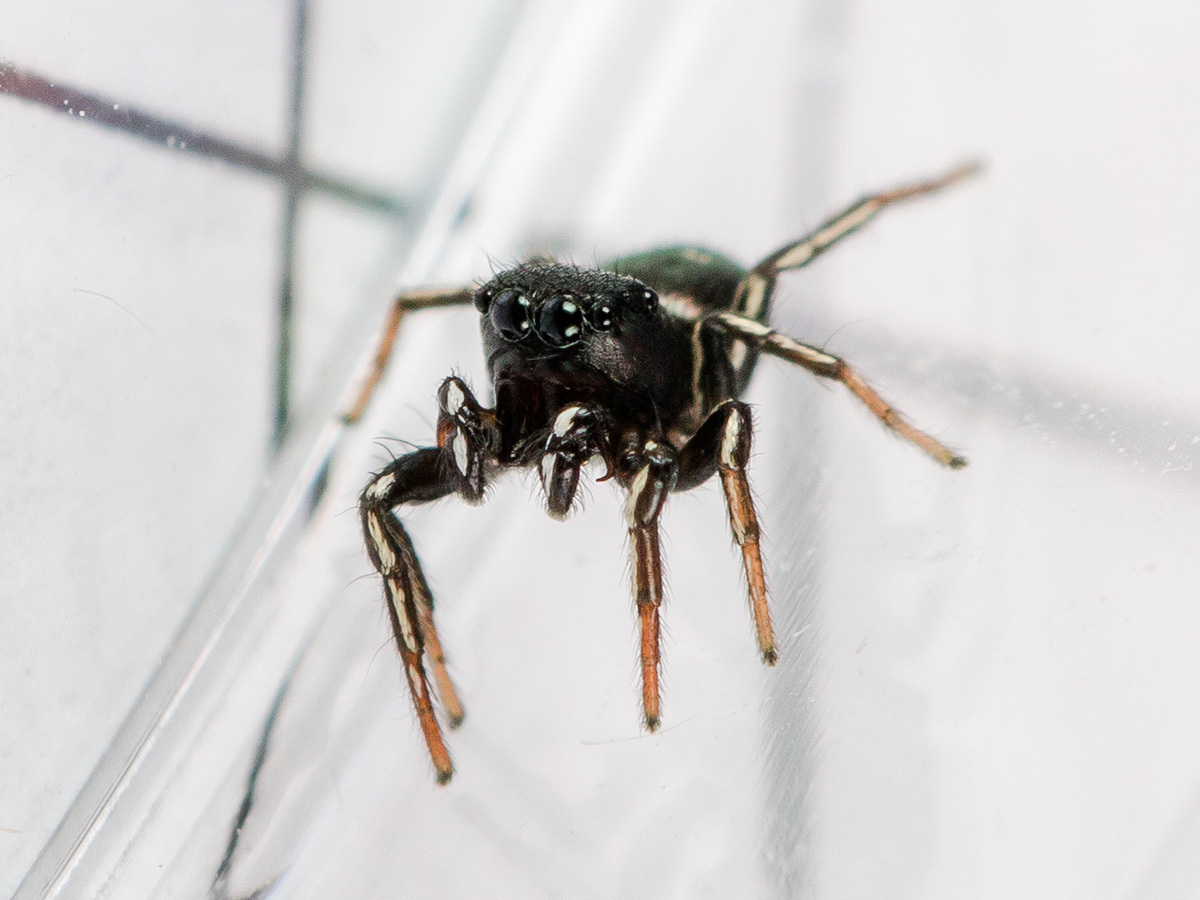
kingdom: Animalia
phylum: Arthropoda
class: Arachnida
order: Araneae
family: Salticidae
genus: Heliophanus
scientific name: Heliophanus curvidens
